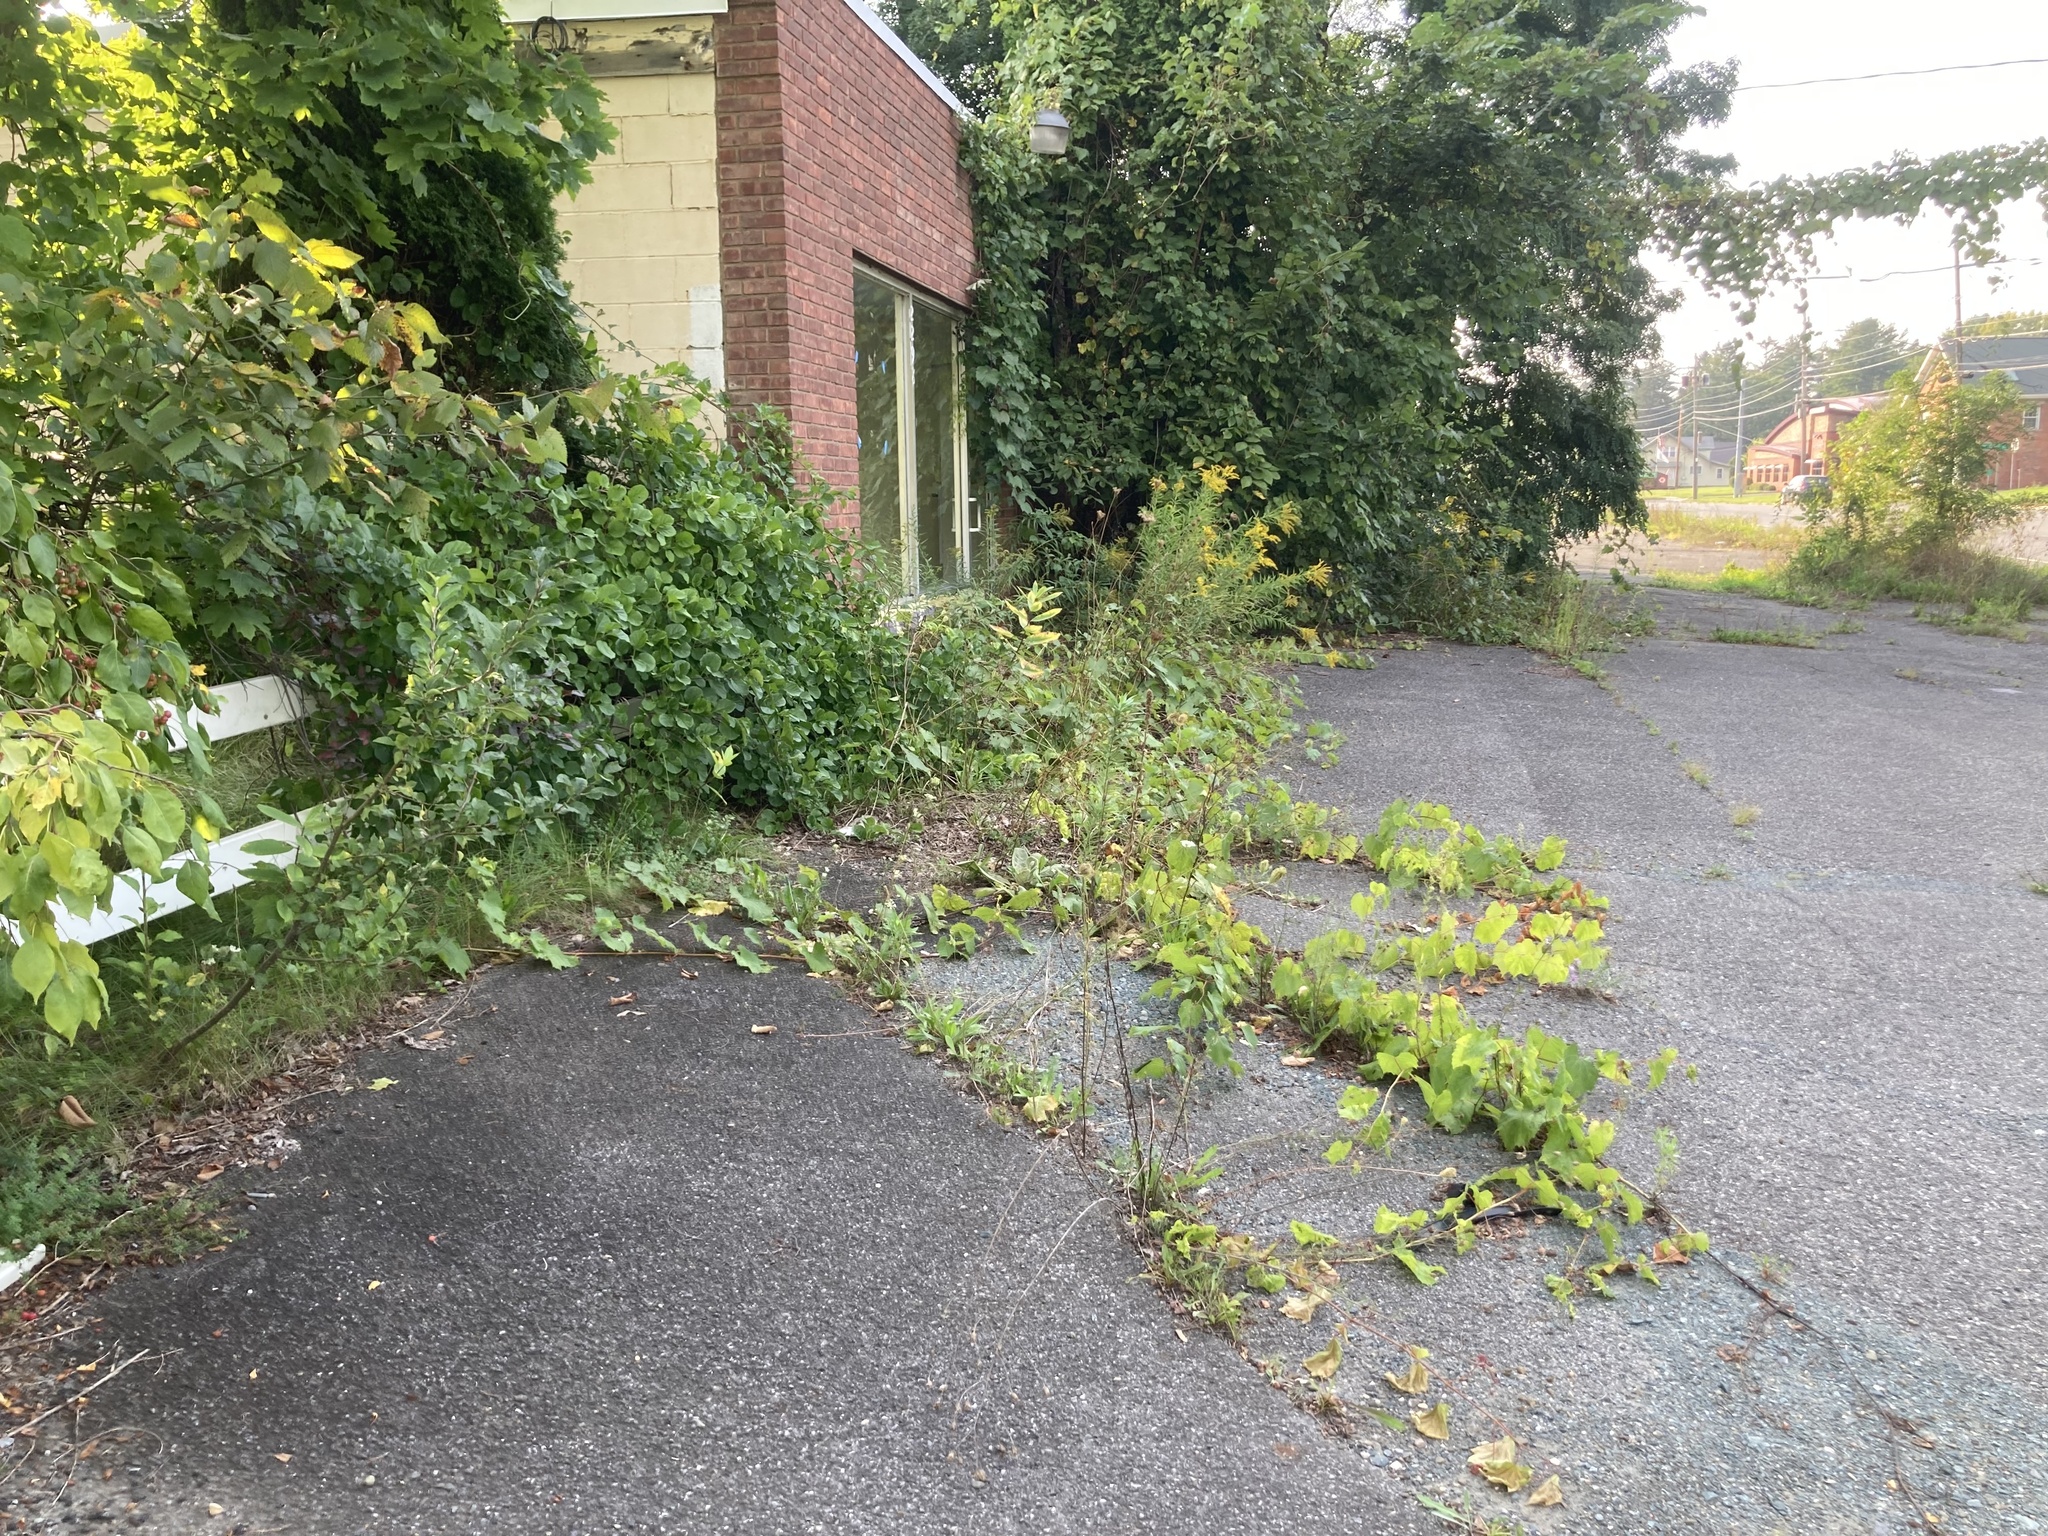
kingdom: Plantae
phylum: Tracheophyta
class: Magnoliopsida
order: Vitales
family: Vitaceae
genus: Vitis
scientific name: Vitis riparia
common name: Frost grape
